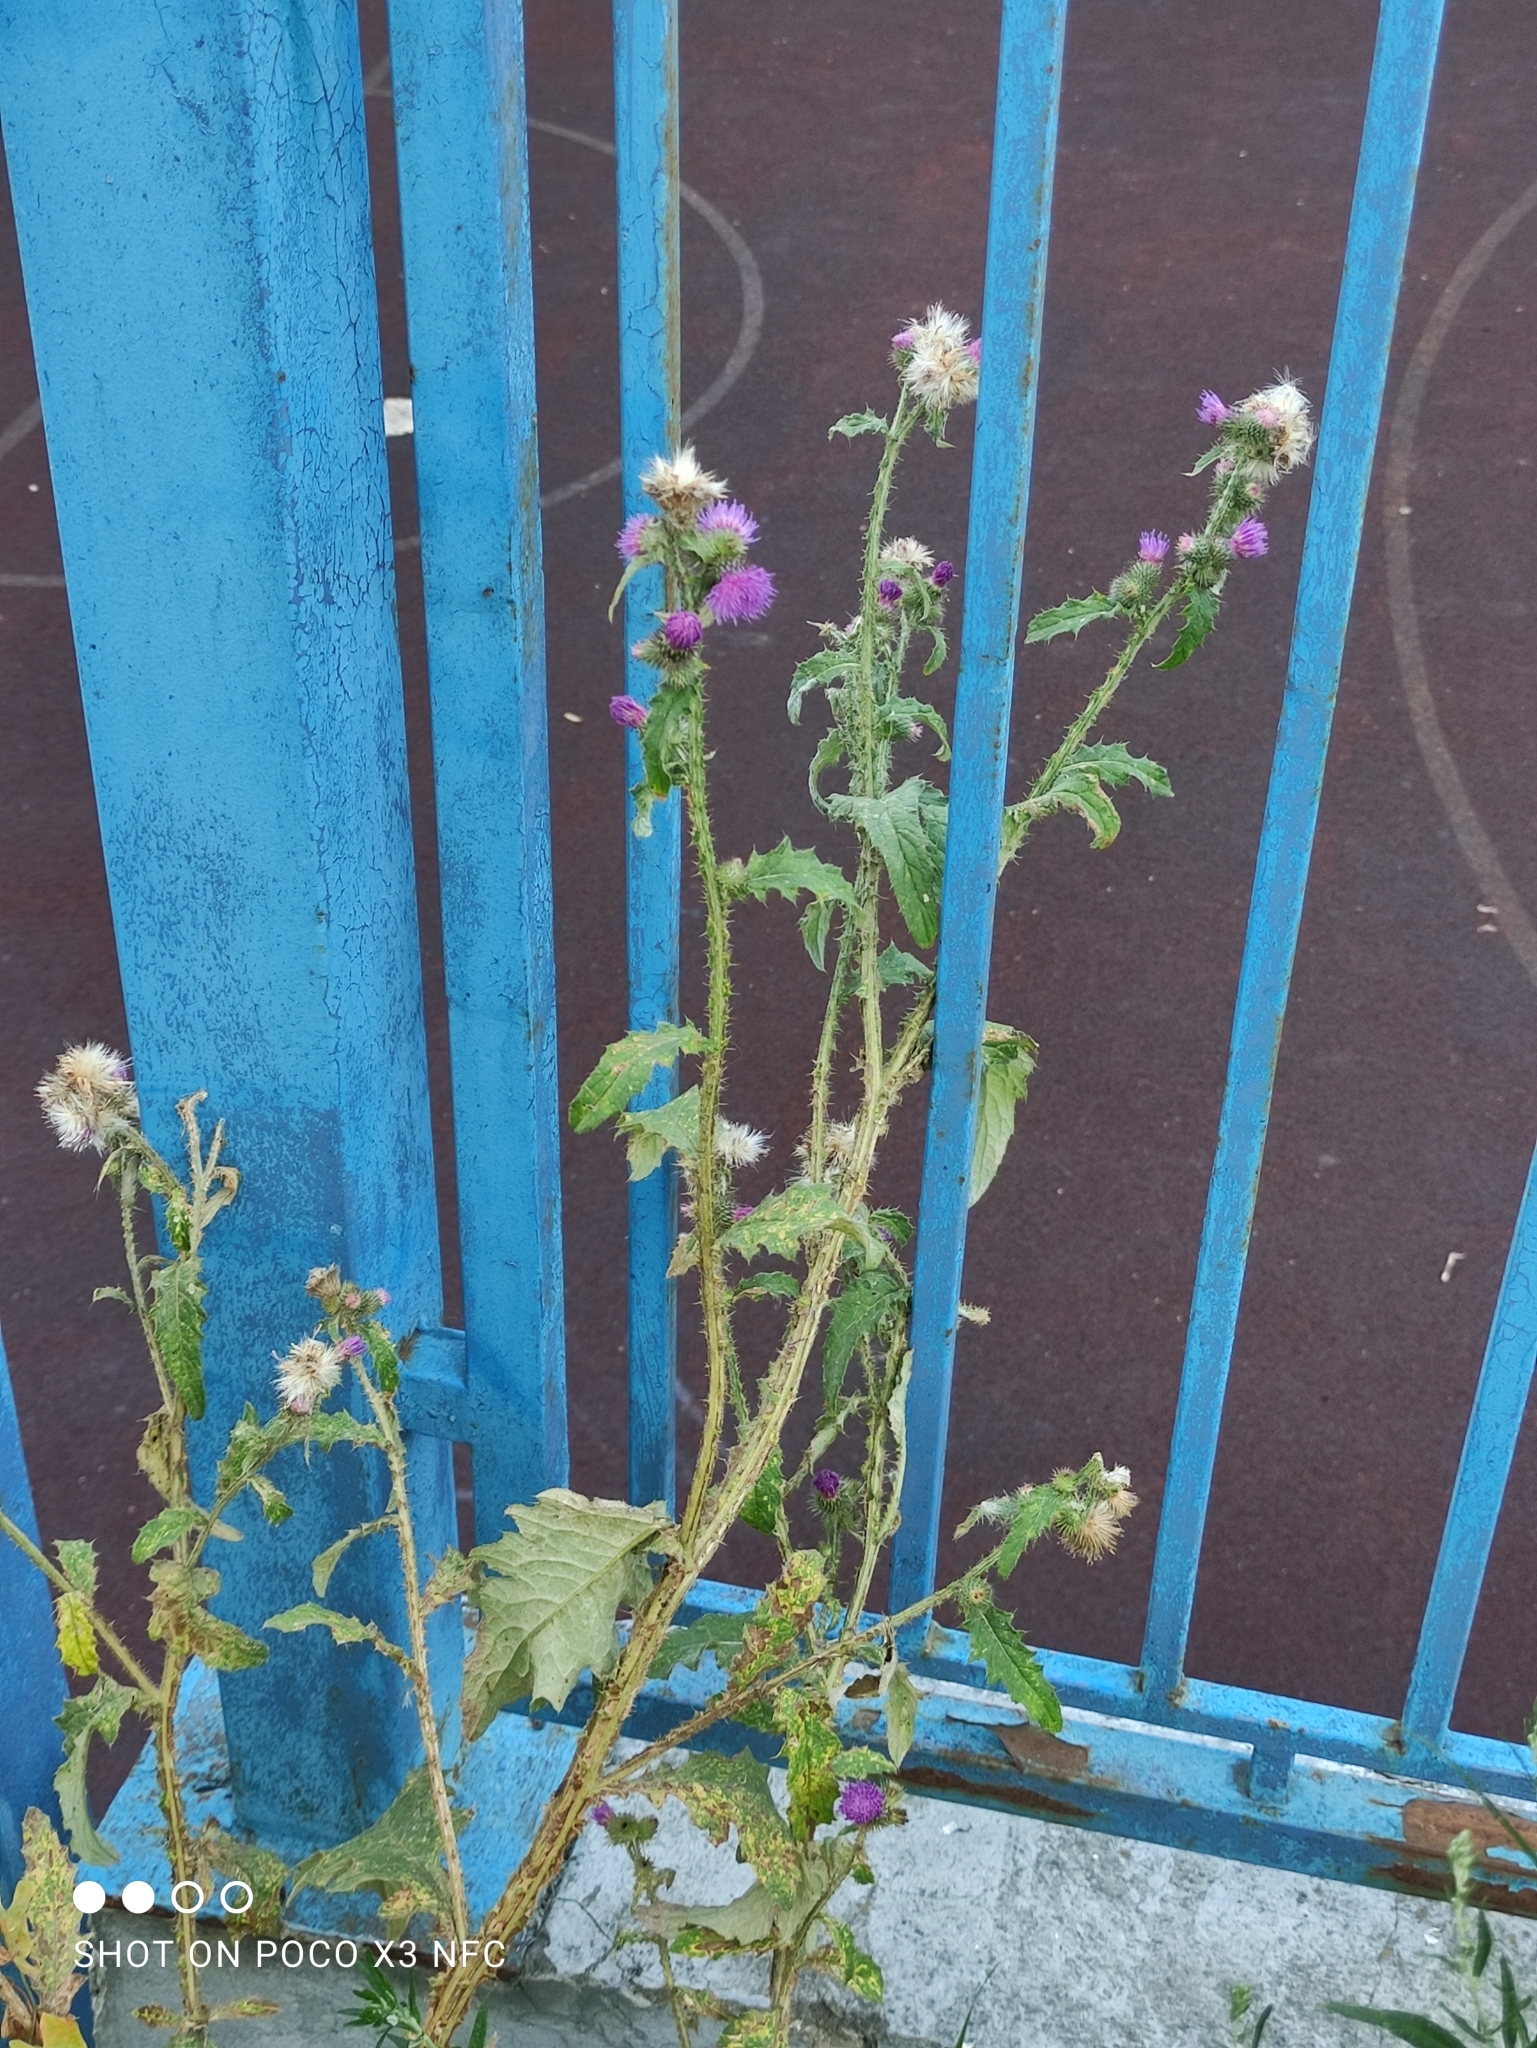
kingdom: Plantae
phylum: Tracheophyta
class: Magnoliopsida
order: Asterales
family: Asteraceae
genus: Carduus
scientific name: Carduus crispus
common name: Welted thistle
